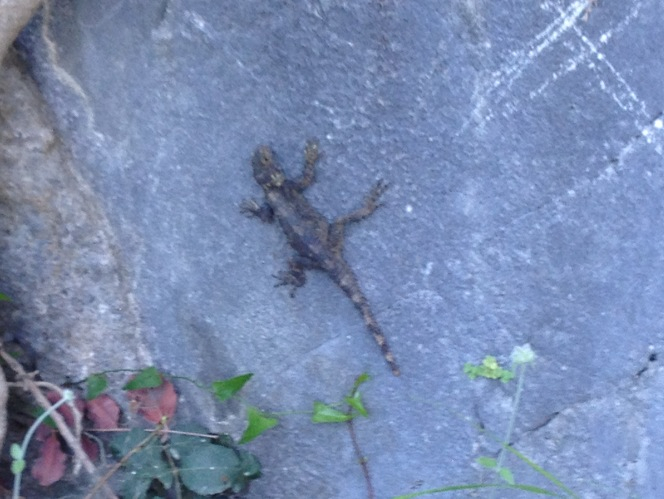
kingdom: Animalia
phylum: Chordata
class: Squamata
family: Agamidae
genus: Stellagama
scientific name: Stellagama stellio
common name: Starred agama
